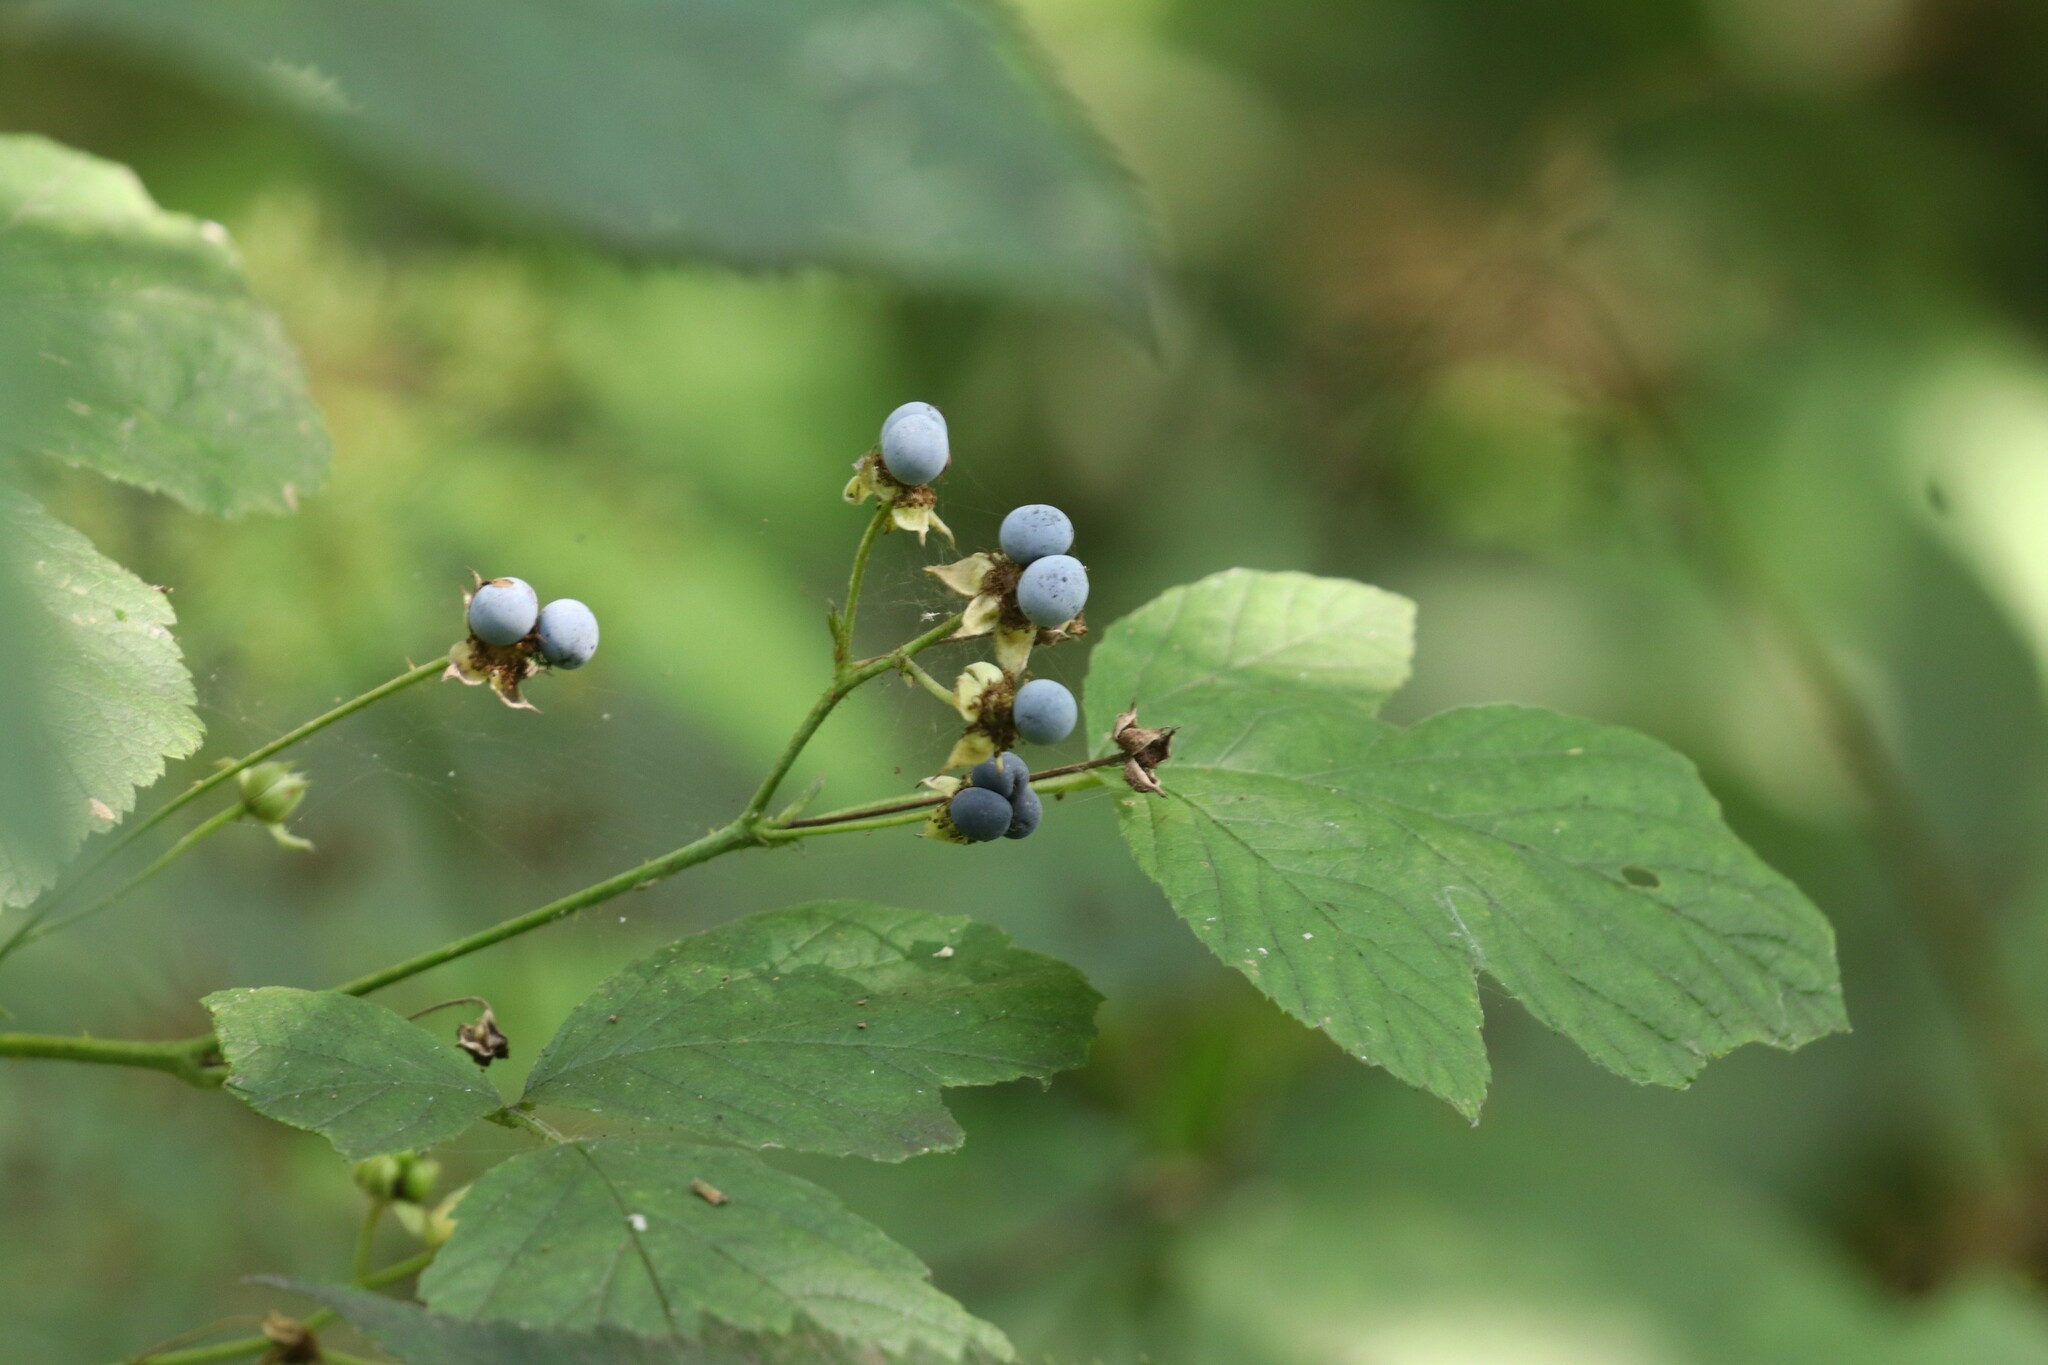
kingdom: Plantae
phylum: Tracheophyta
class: Magnoliopsida
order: Rosales
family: Rosaceae
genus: Rubus
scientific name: Rubus caesius
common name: Dewberry
